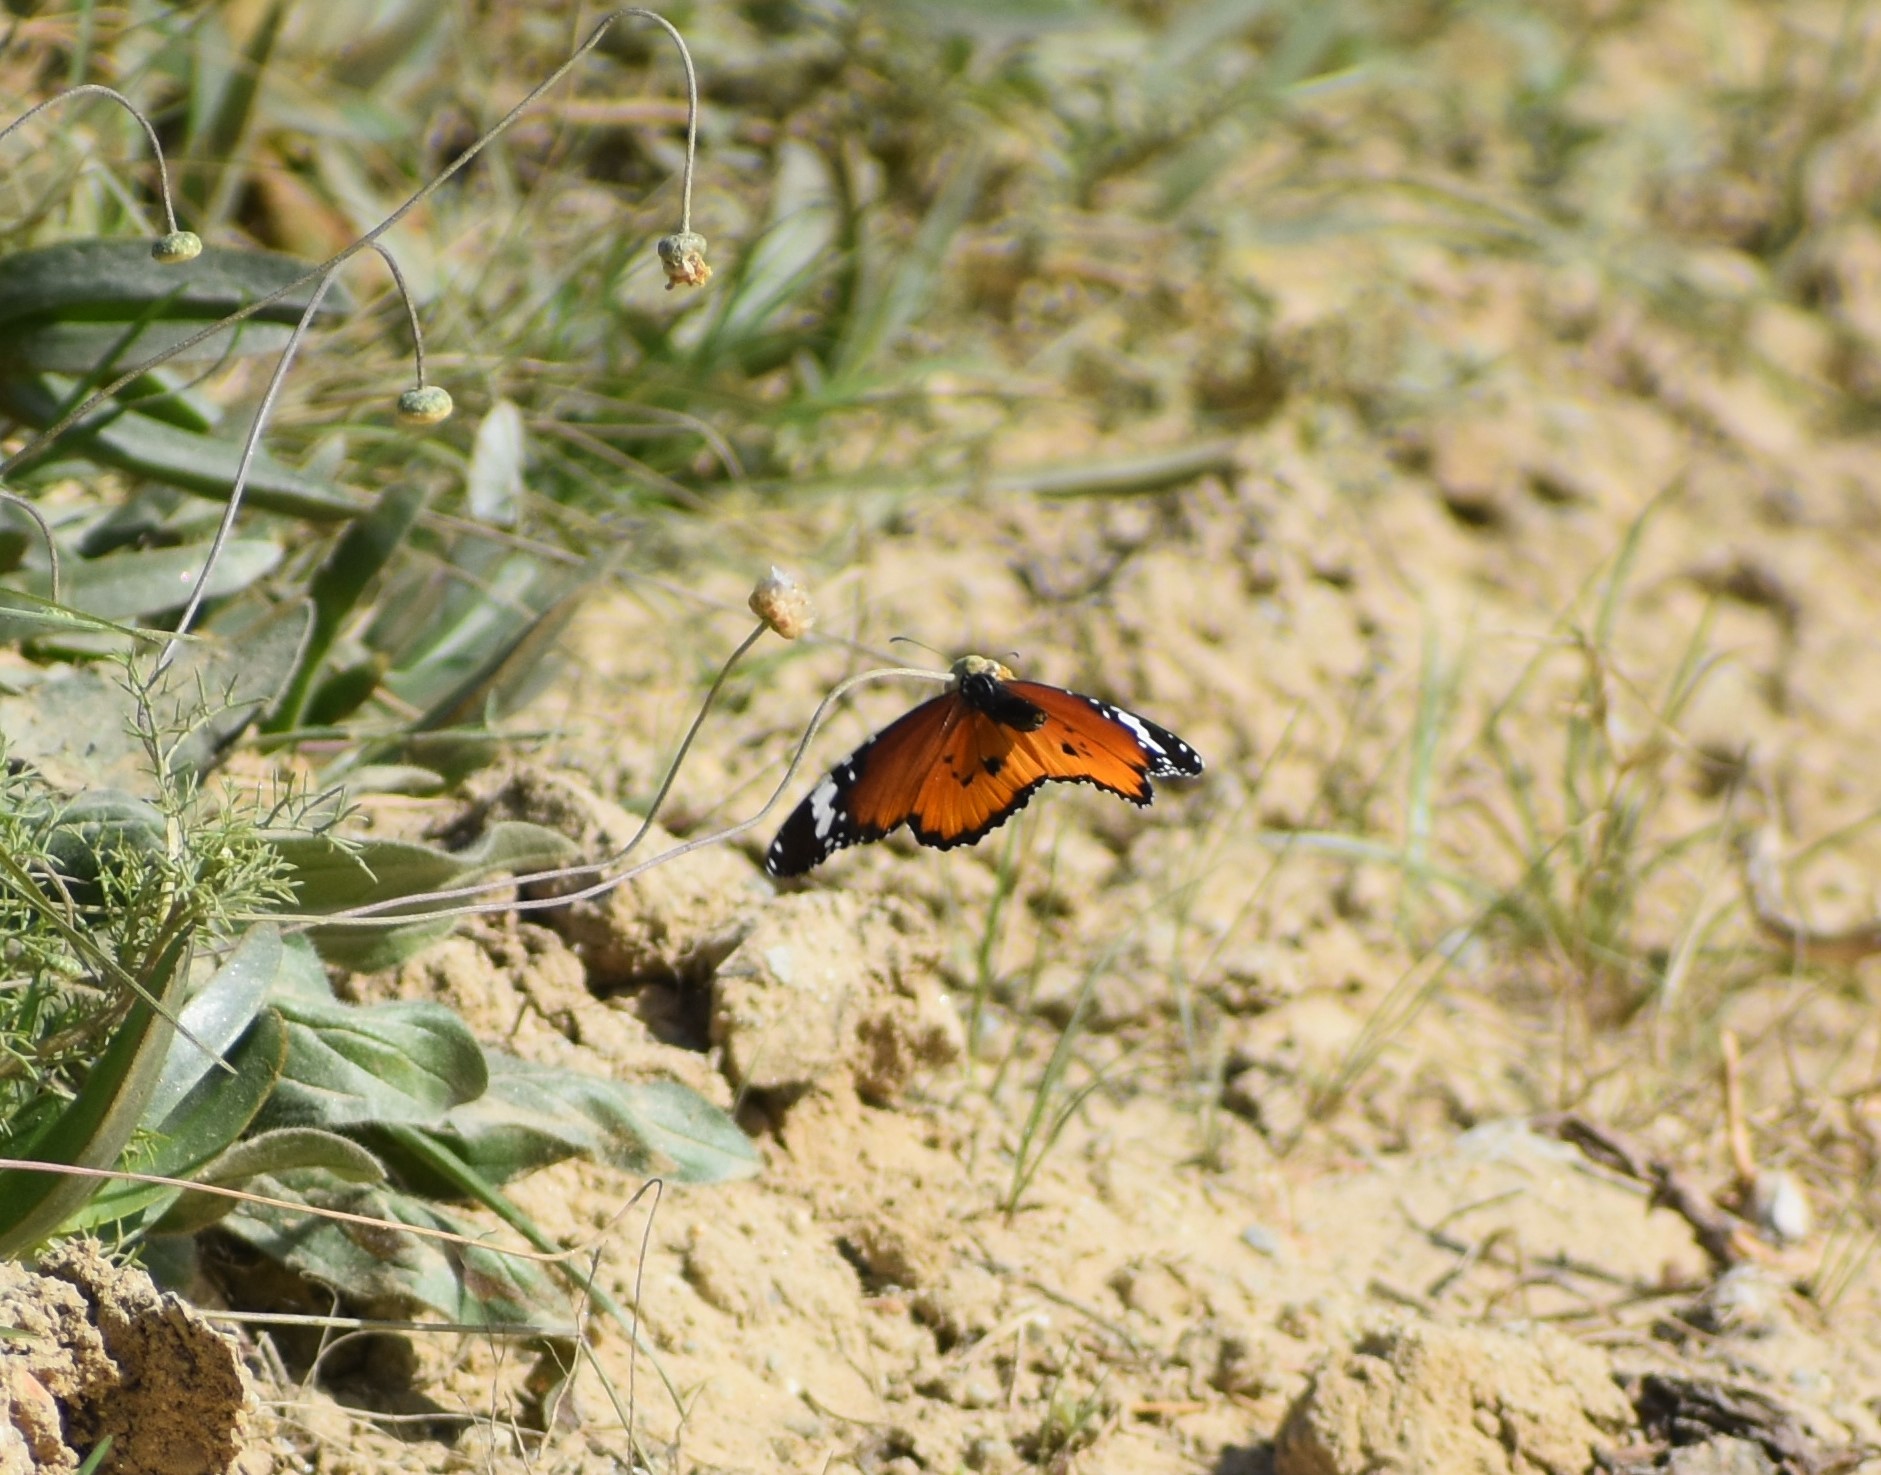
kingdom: Animalia
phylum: Arthropoda
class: Insecta
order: Lepidoptera
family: Nymphalidae
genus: Danaus
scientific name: Danaus chrysippus
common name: Plain tiger
